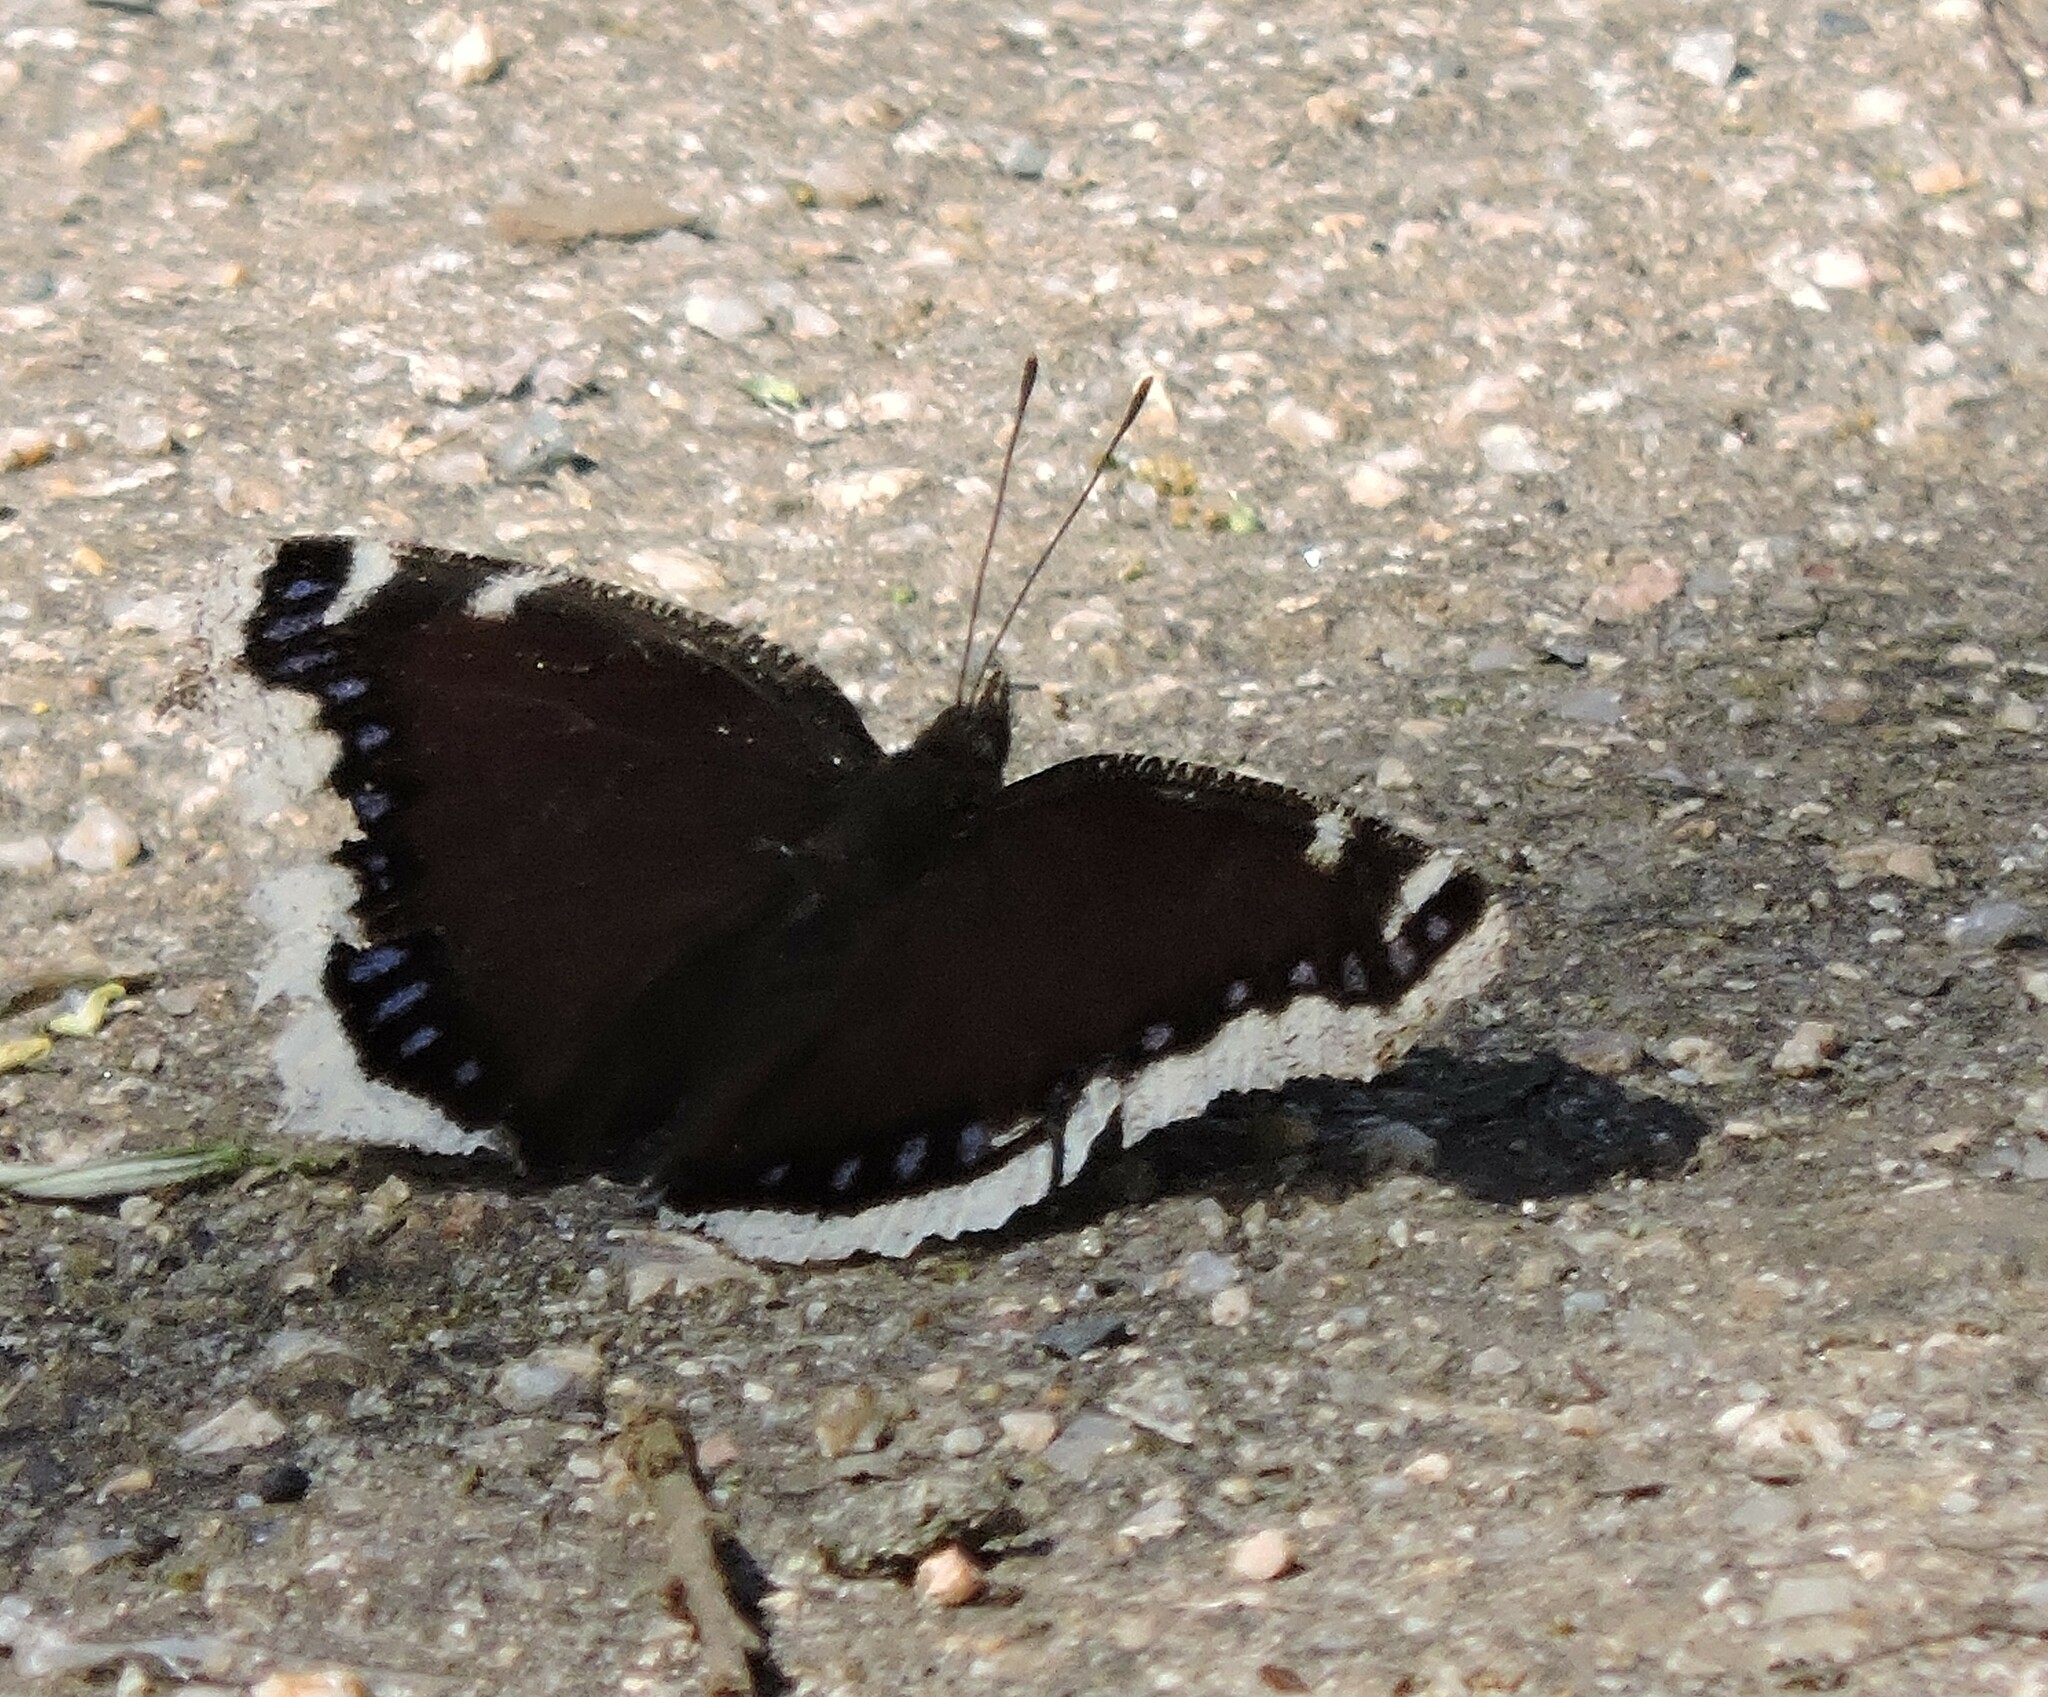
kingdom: Animalia
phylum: Arthropoda
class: Insecta
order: Lepidoptera
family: Nymphalidae
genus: Nymphalis
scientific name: Nymphalis antiopa
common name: Camberwell beauty
